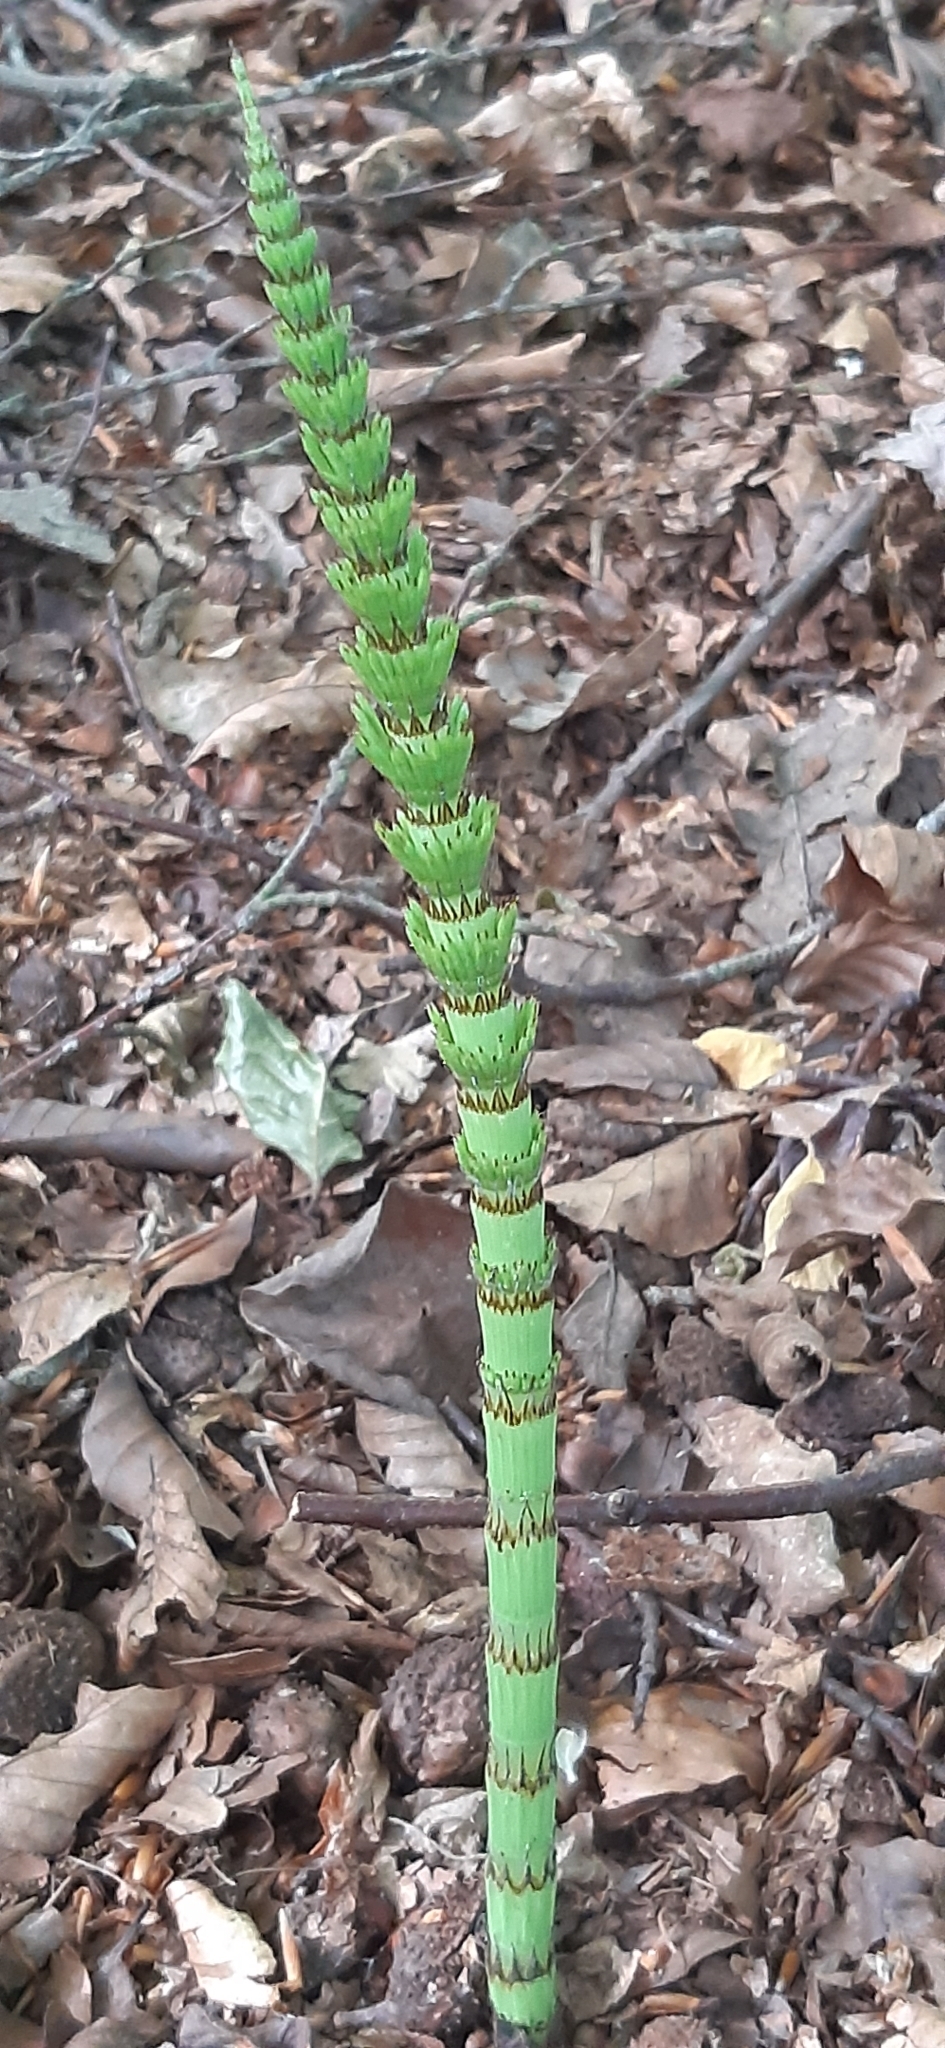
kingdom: Plantae
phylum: Tracheophyta
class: Polypodiopsida
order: Equisetales
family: Equisetaceae
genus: Equisetum
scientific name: Equisetum telmateia
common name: Great horsetail
